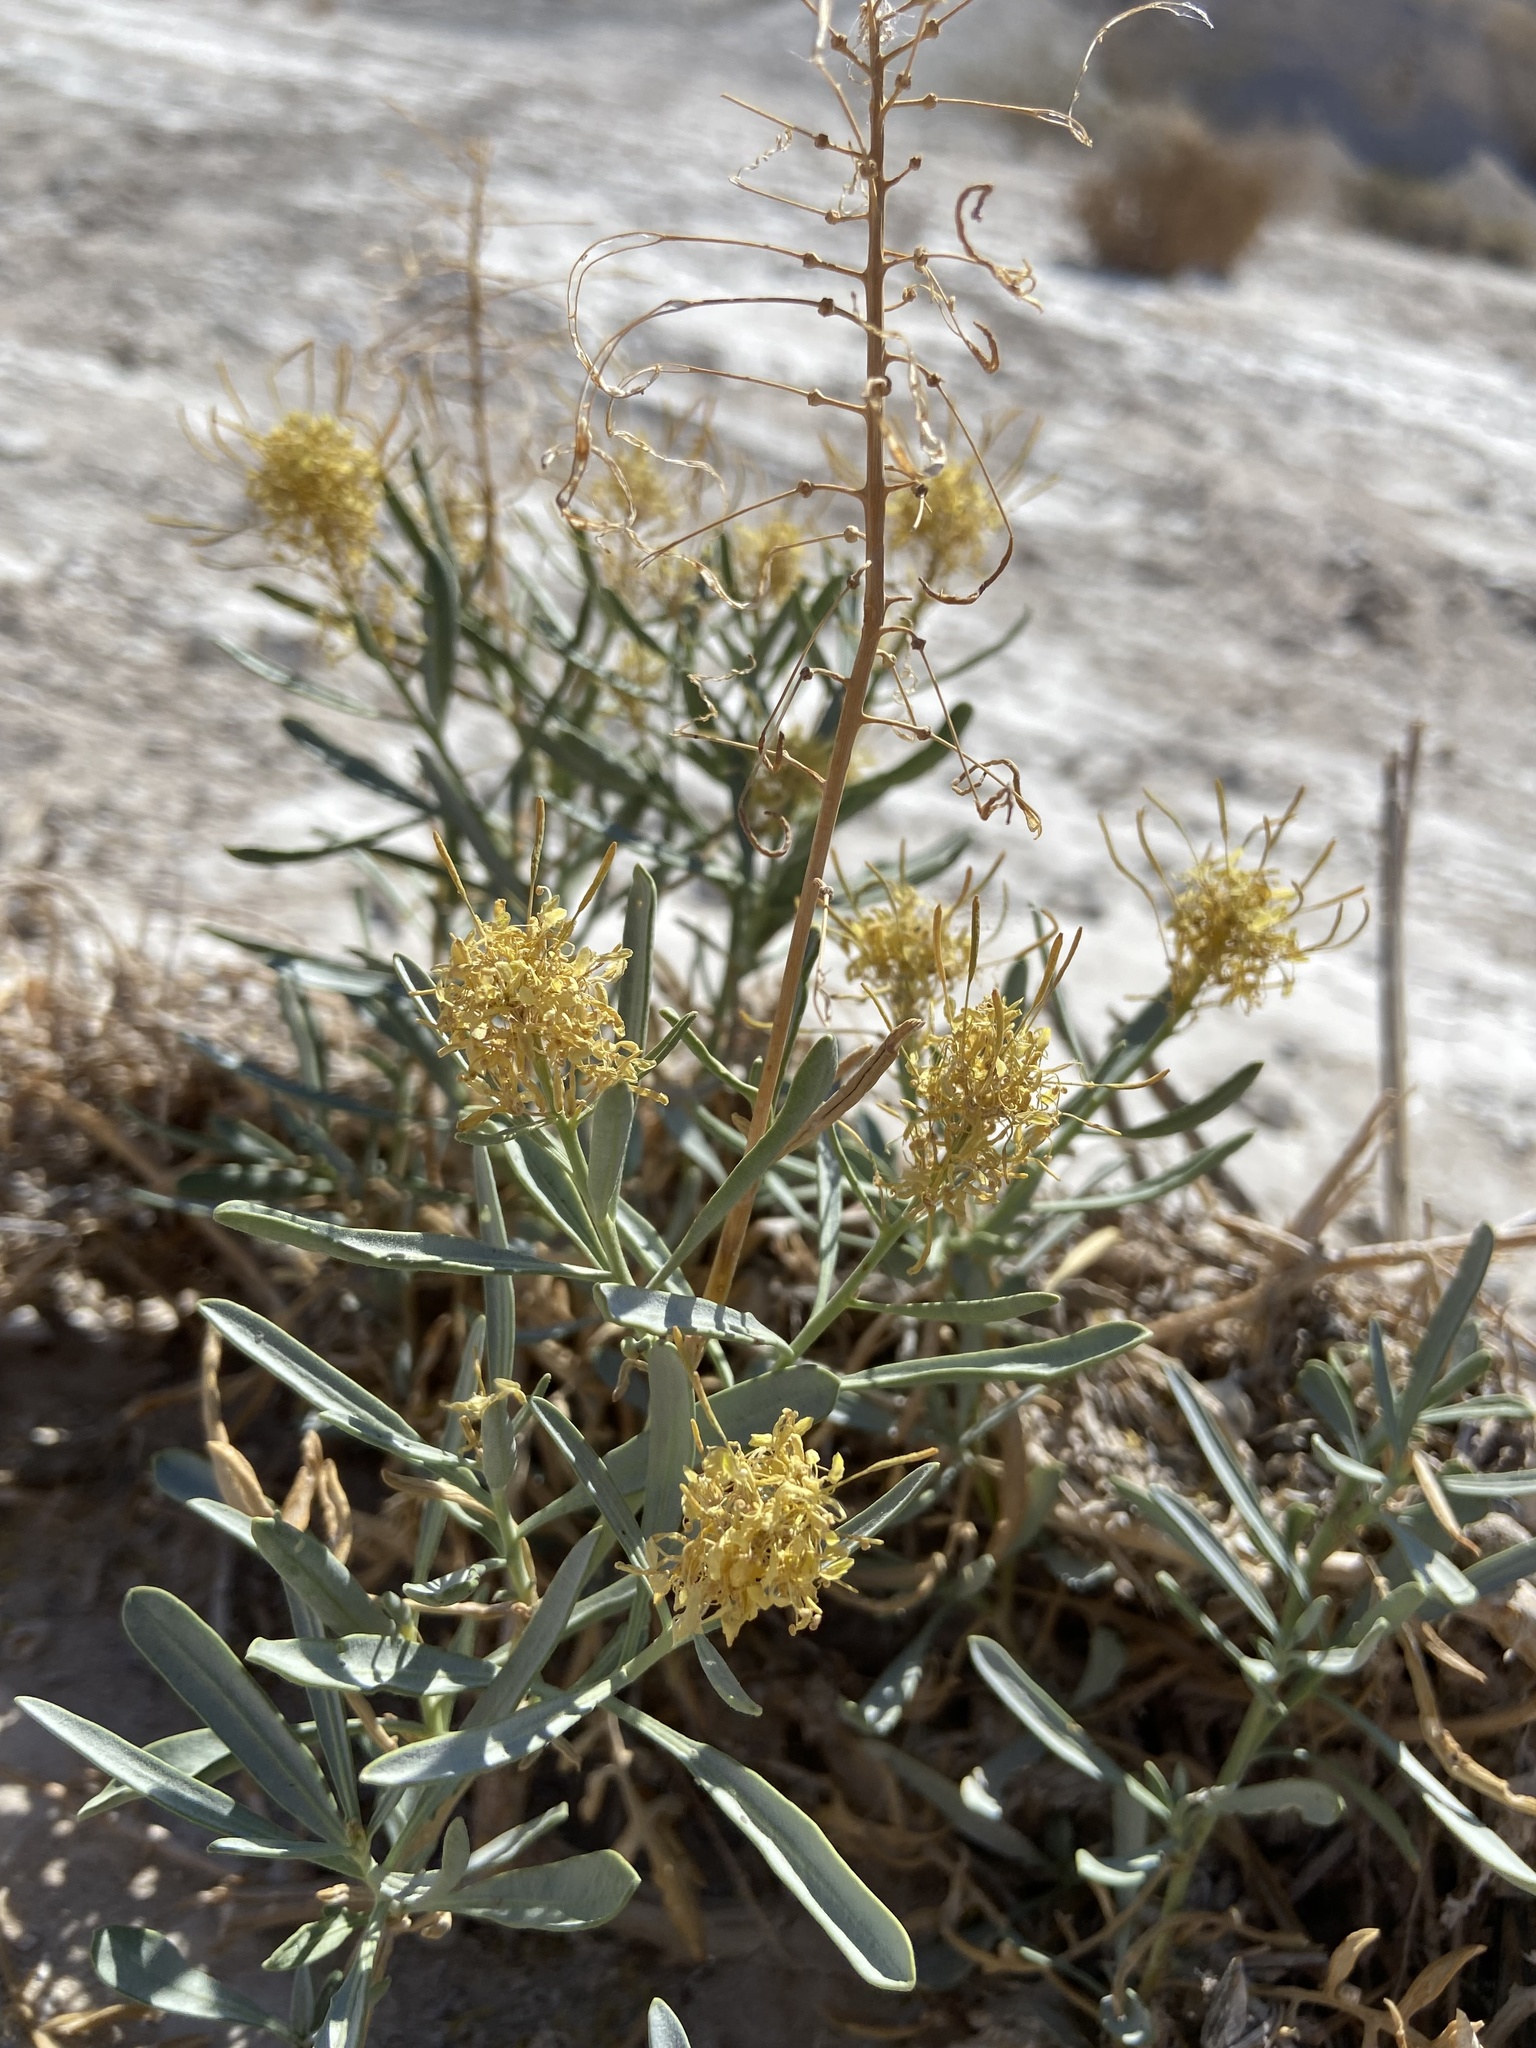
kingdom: Plantae
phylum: Tracheophyta
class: Magnoliopsida
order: Brassicales
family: Brassicaceae
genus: Stanleya
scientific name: Stanleya pinnata
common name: Prince's-plume
